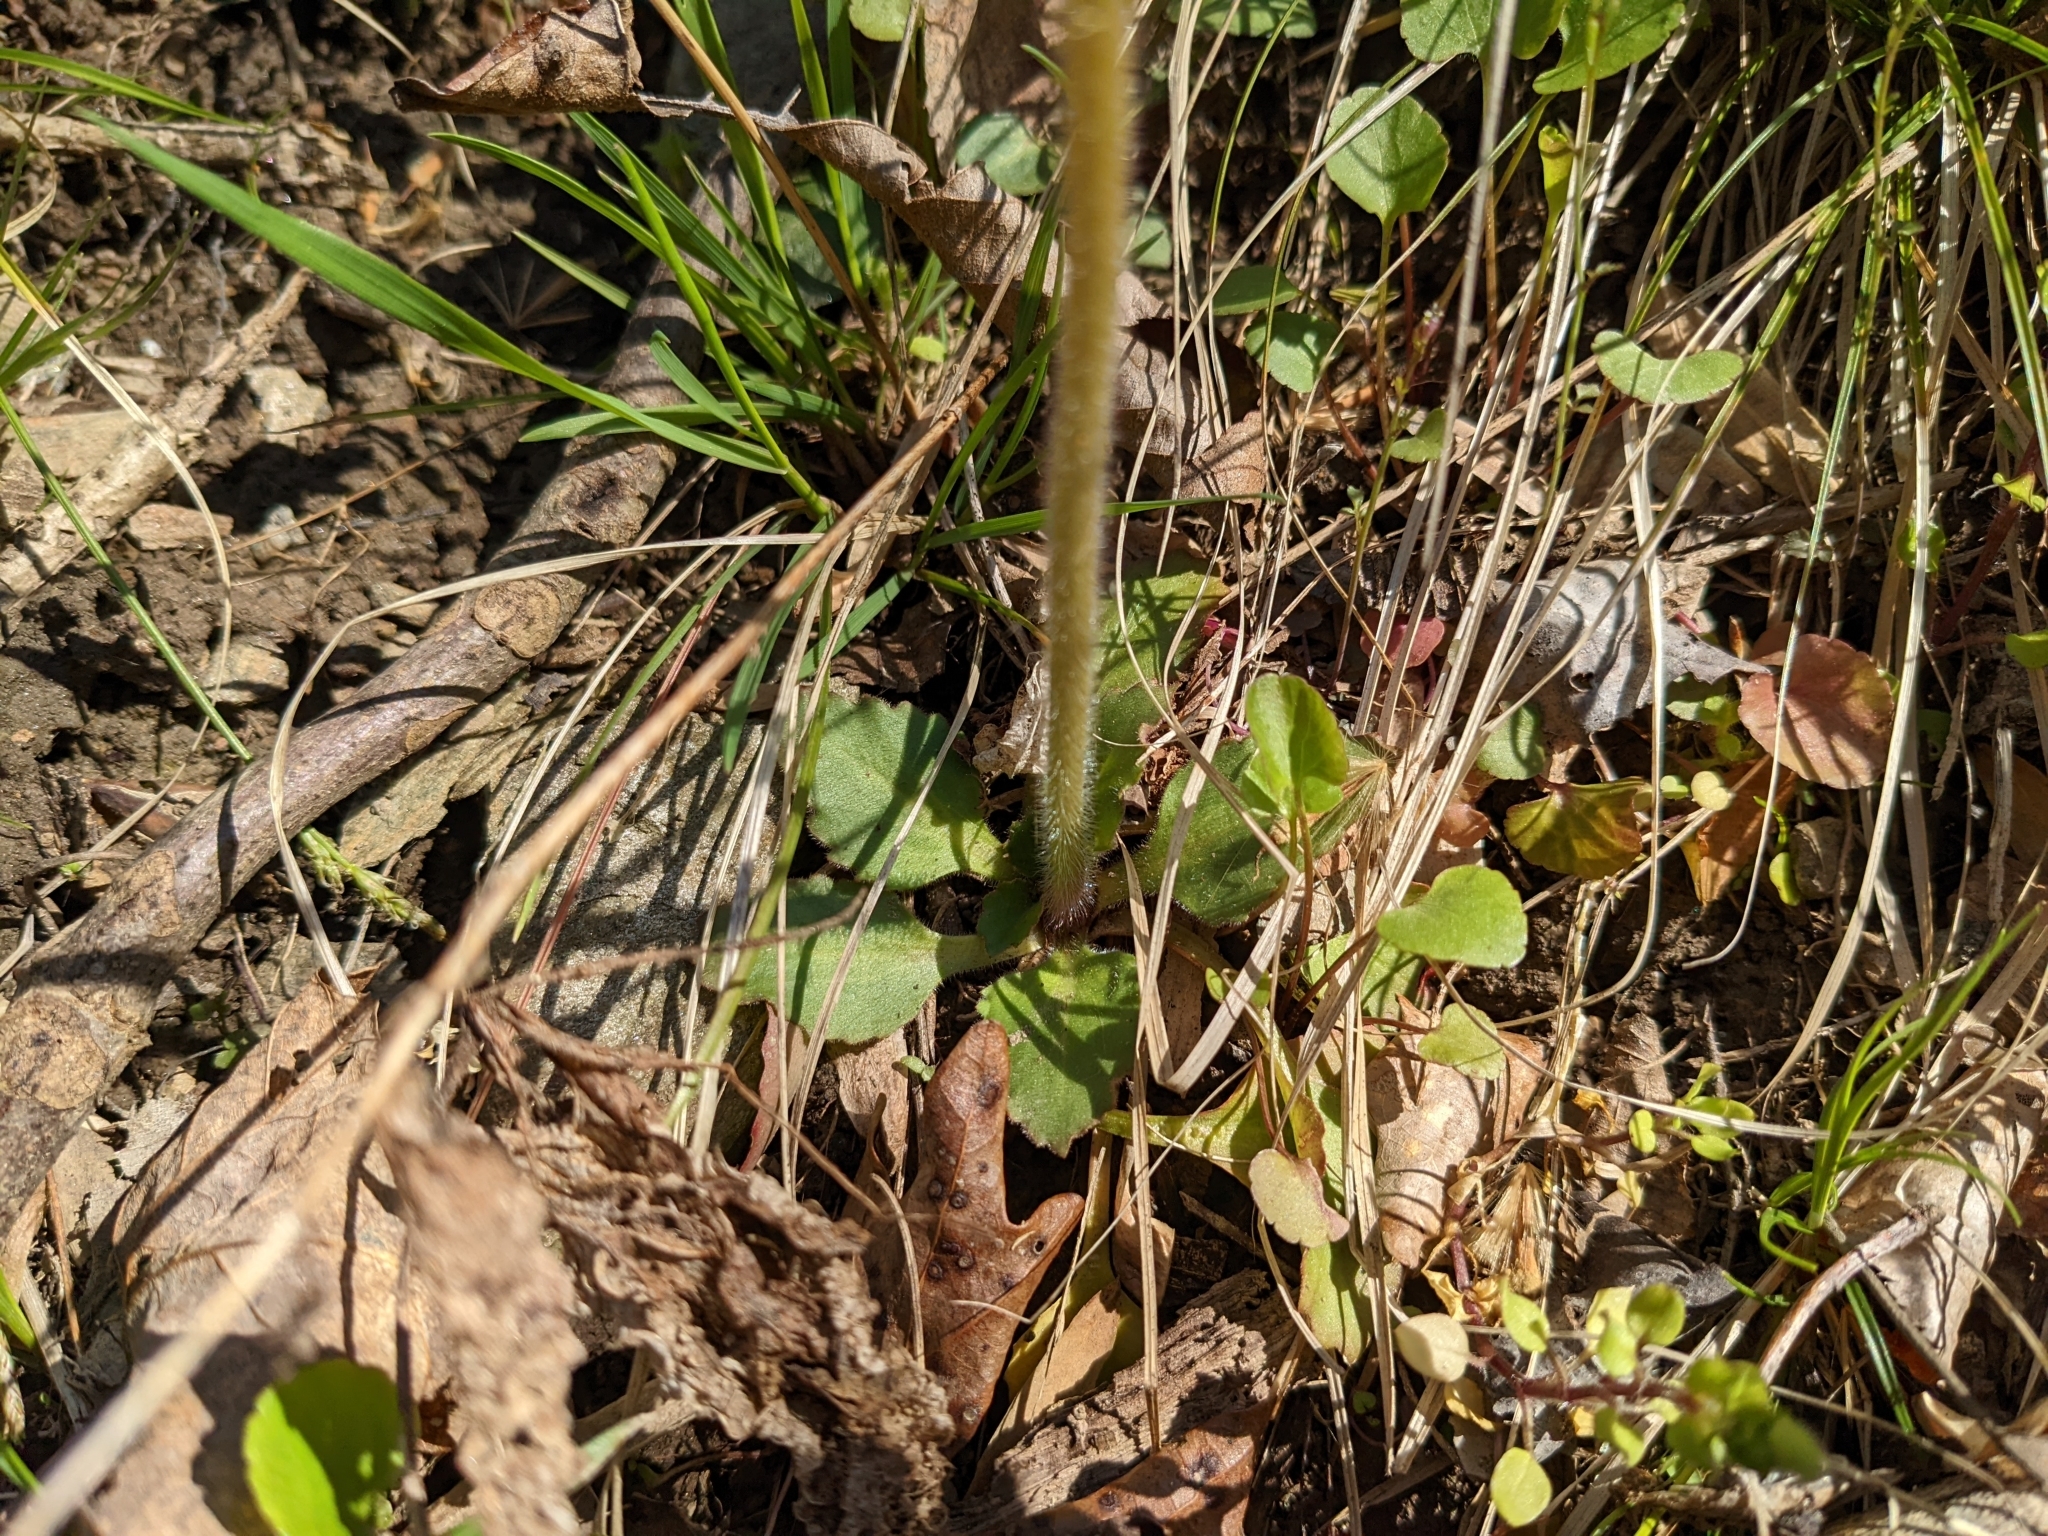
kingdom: Plantae
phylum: Tracheophyta
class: Magnoliopsida
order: Saxifragales
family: Saxifragaceae
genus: Micranthes
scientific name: Micranthes virginiensis
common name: Early saxifrage
